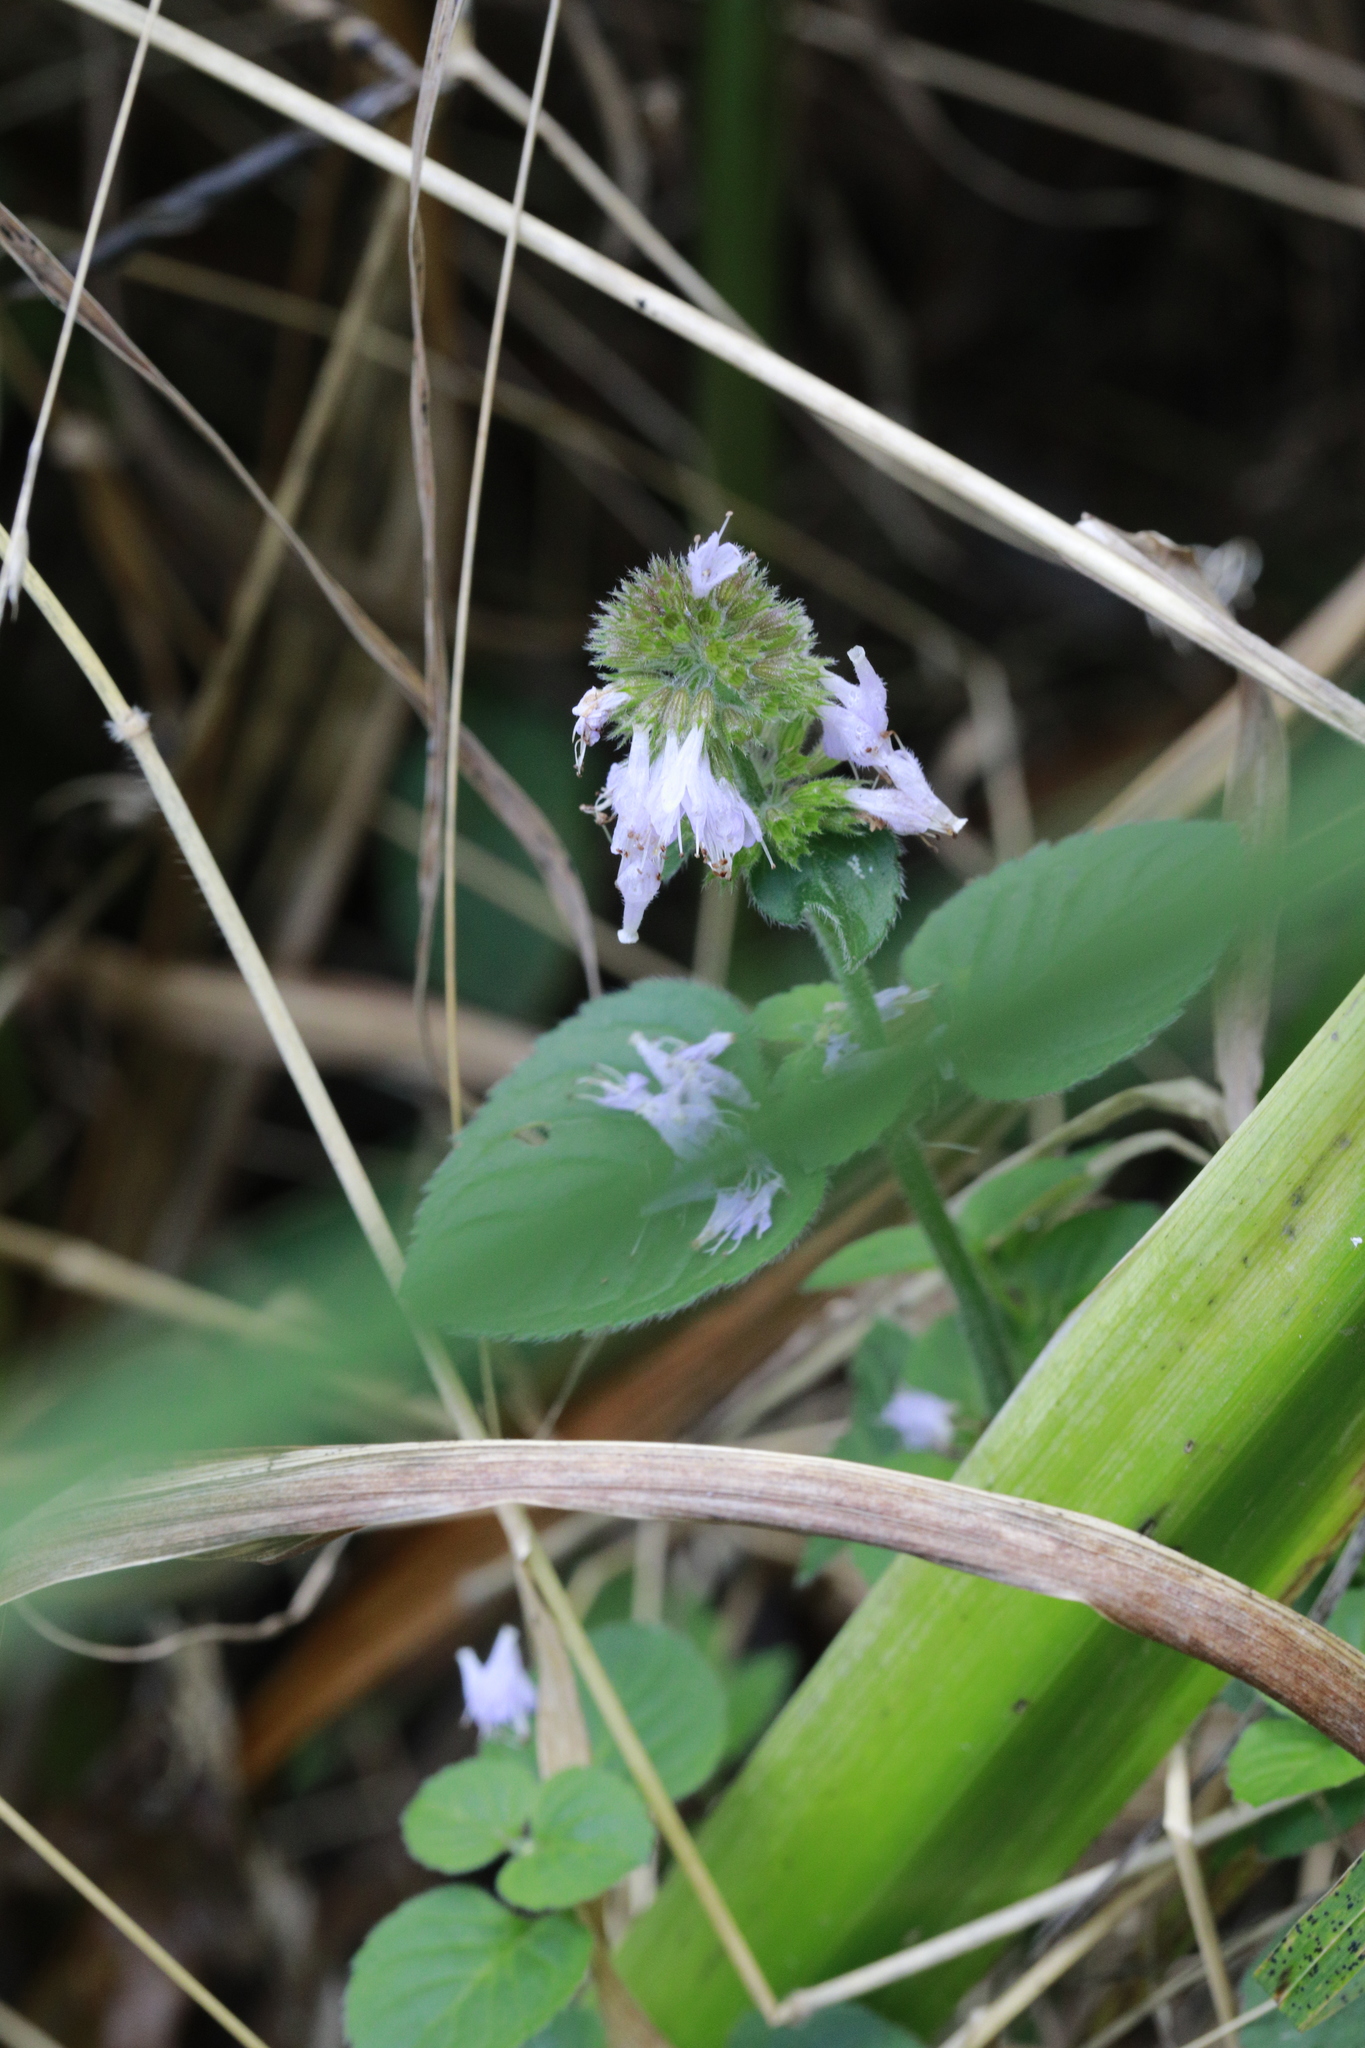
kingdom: Plantae
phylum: Tracheophyta
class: Magnoliopsida
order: Lamiales
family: Lamiaceae
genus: Mentha
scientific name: Mentha aquatica
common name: Water mint
